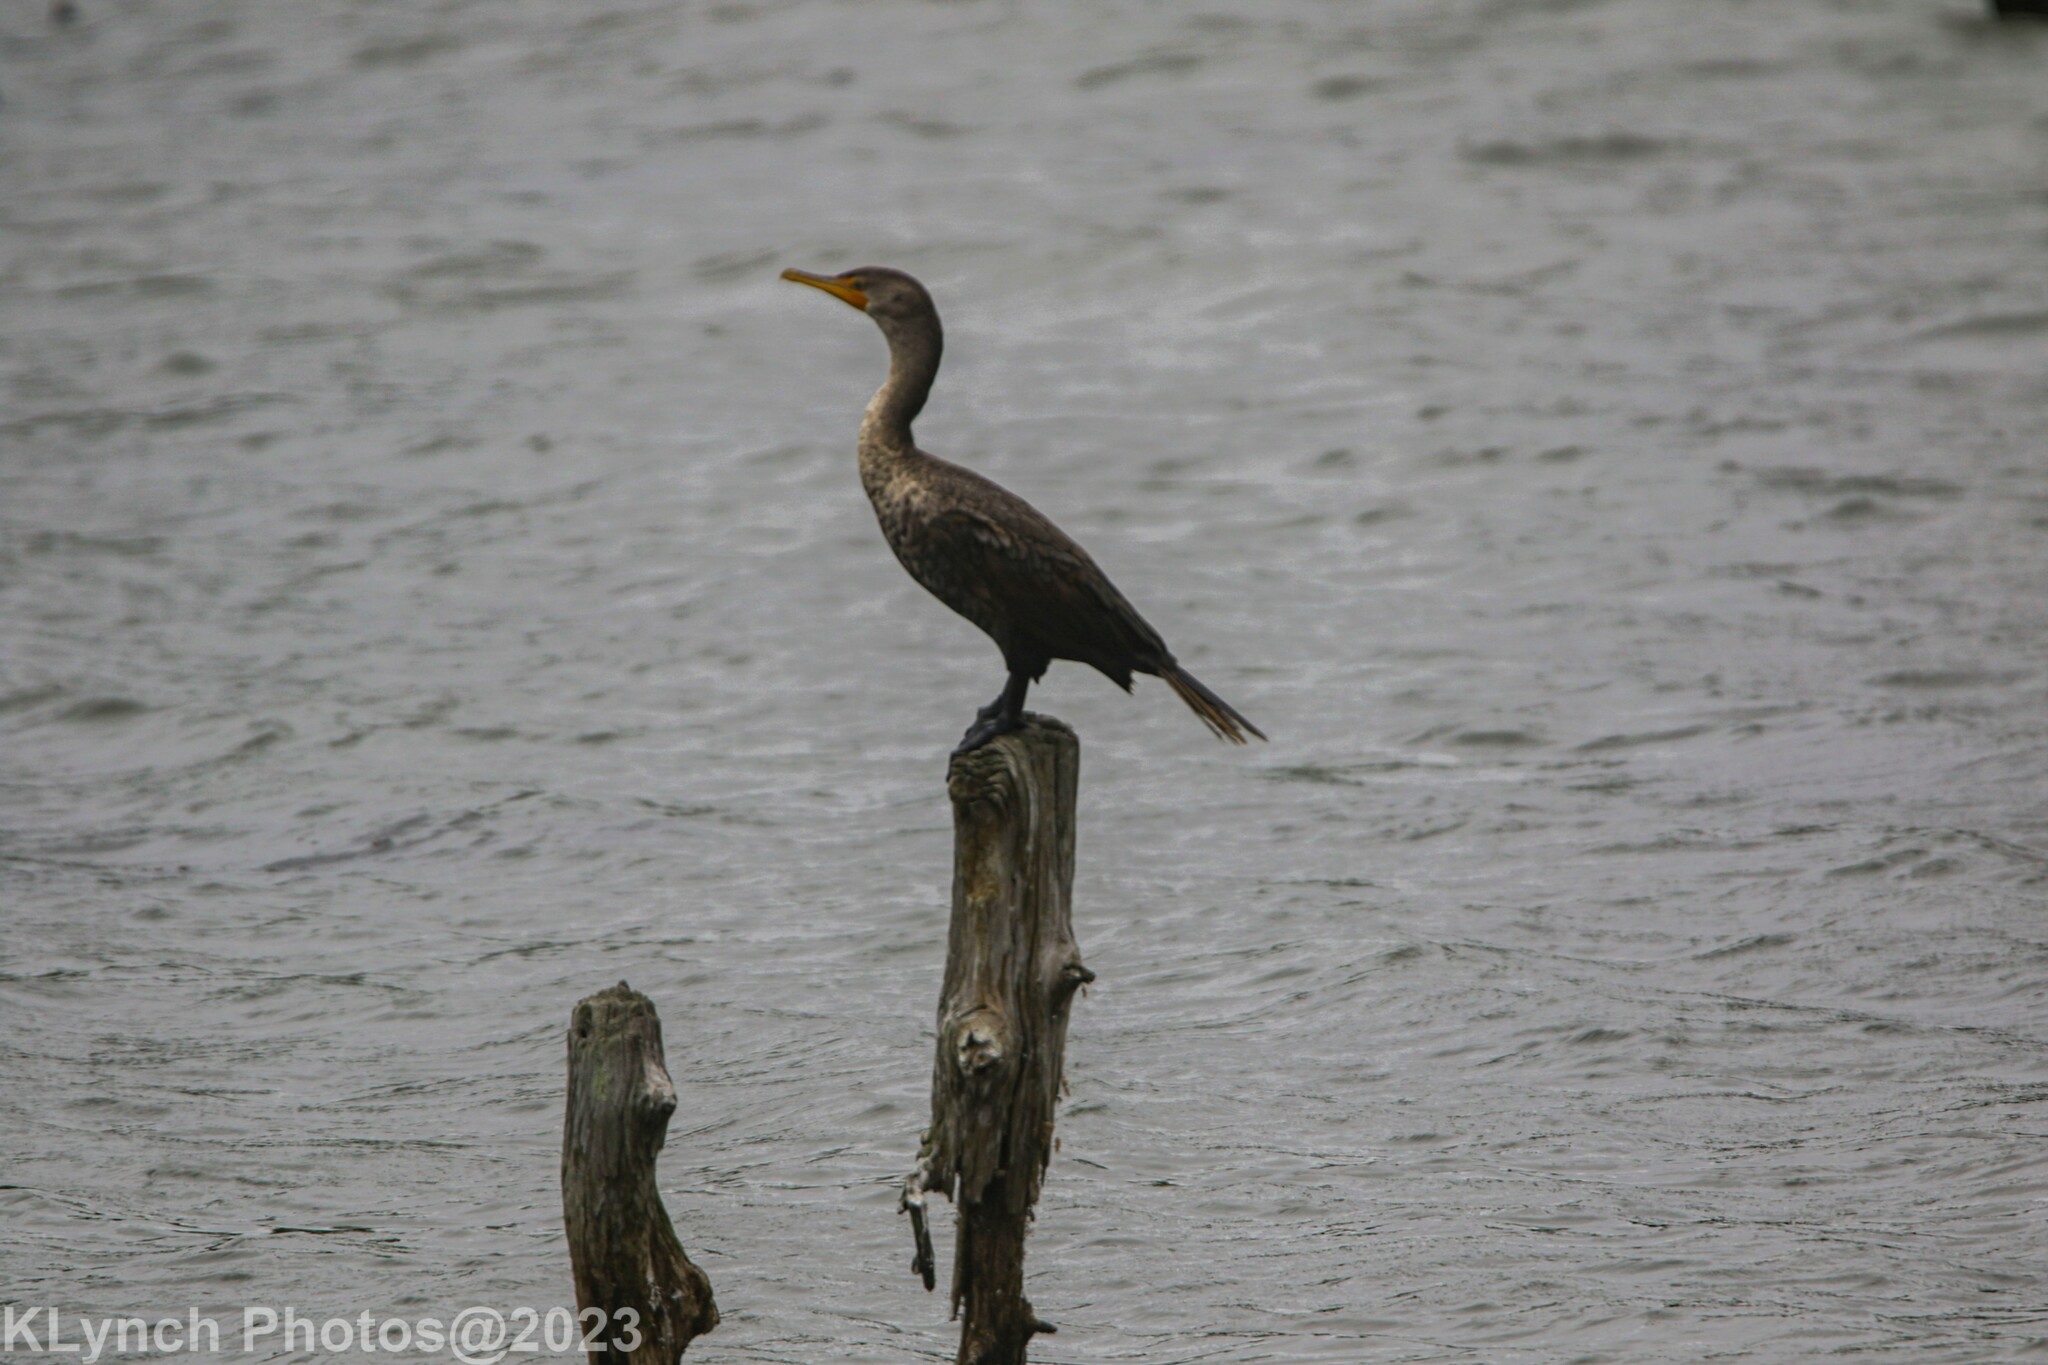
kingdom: Animalia
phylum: Chordata
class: Aves
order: Suliformes
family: Phalacrocoracidae
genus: Phalacrocorax
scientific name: Phalacrocorax auritus
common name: Double-crested cormorant
